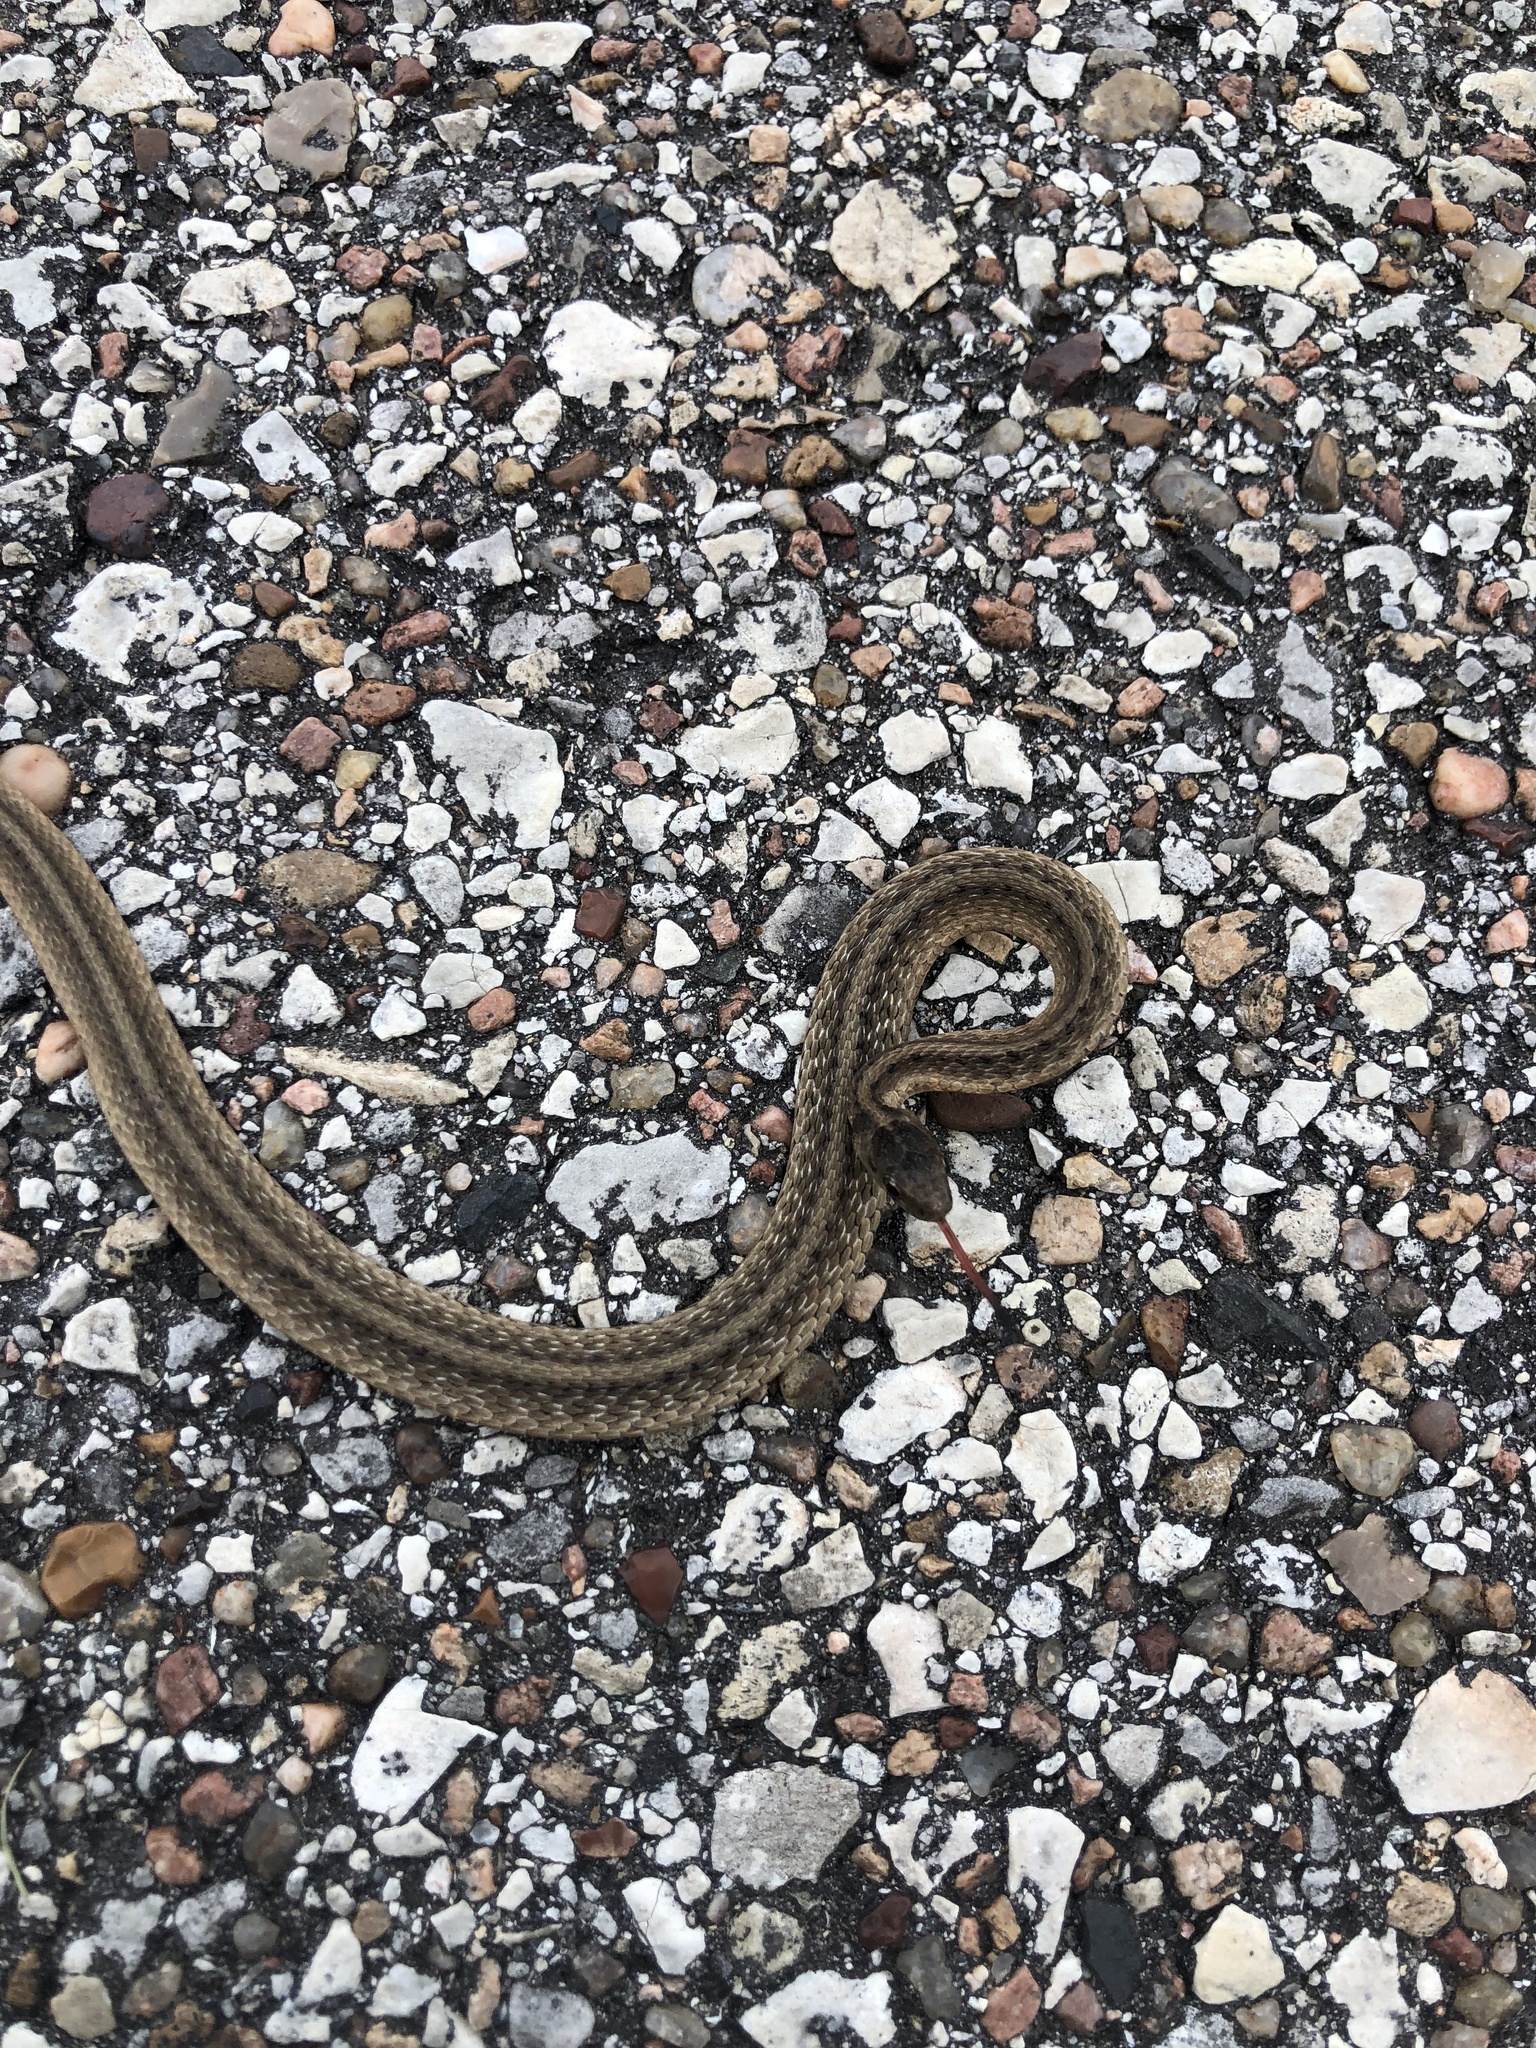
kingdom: Animalia
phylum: Chordata
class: Squamata
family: Colubridae
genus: Storeria
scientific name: Storeria dekayi
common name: (dekay’s) brown snake
